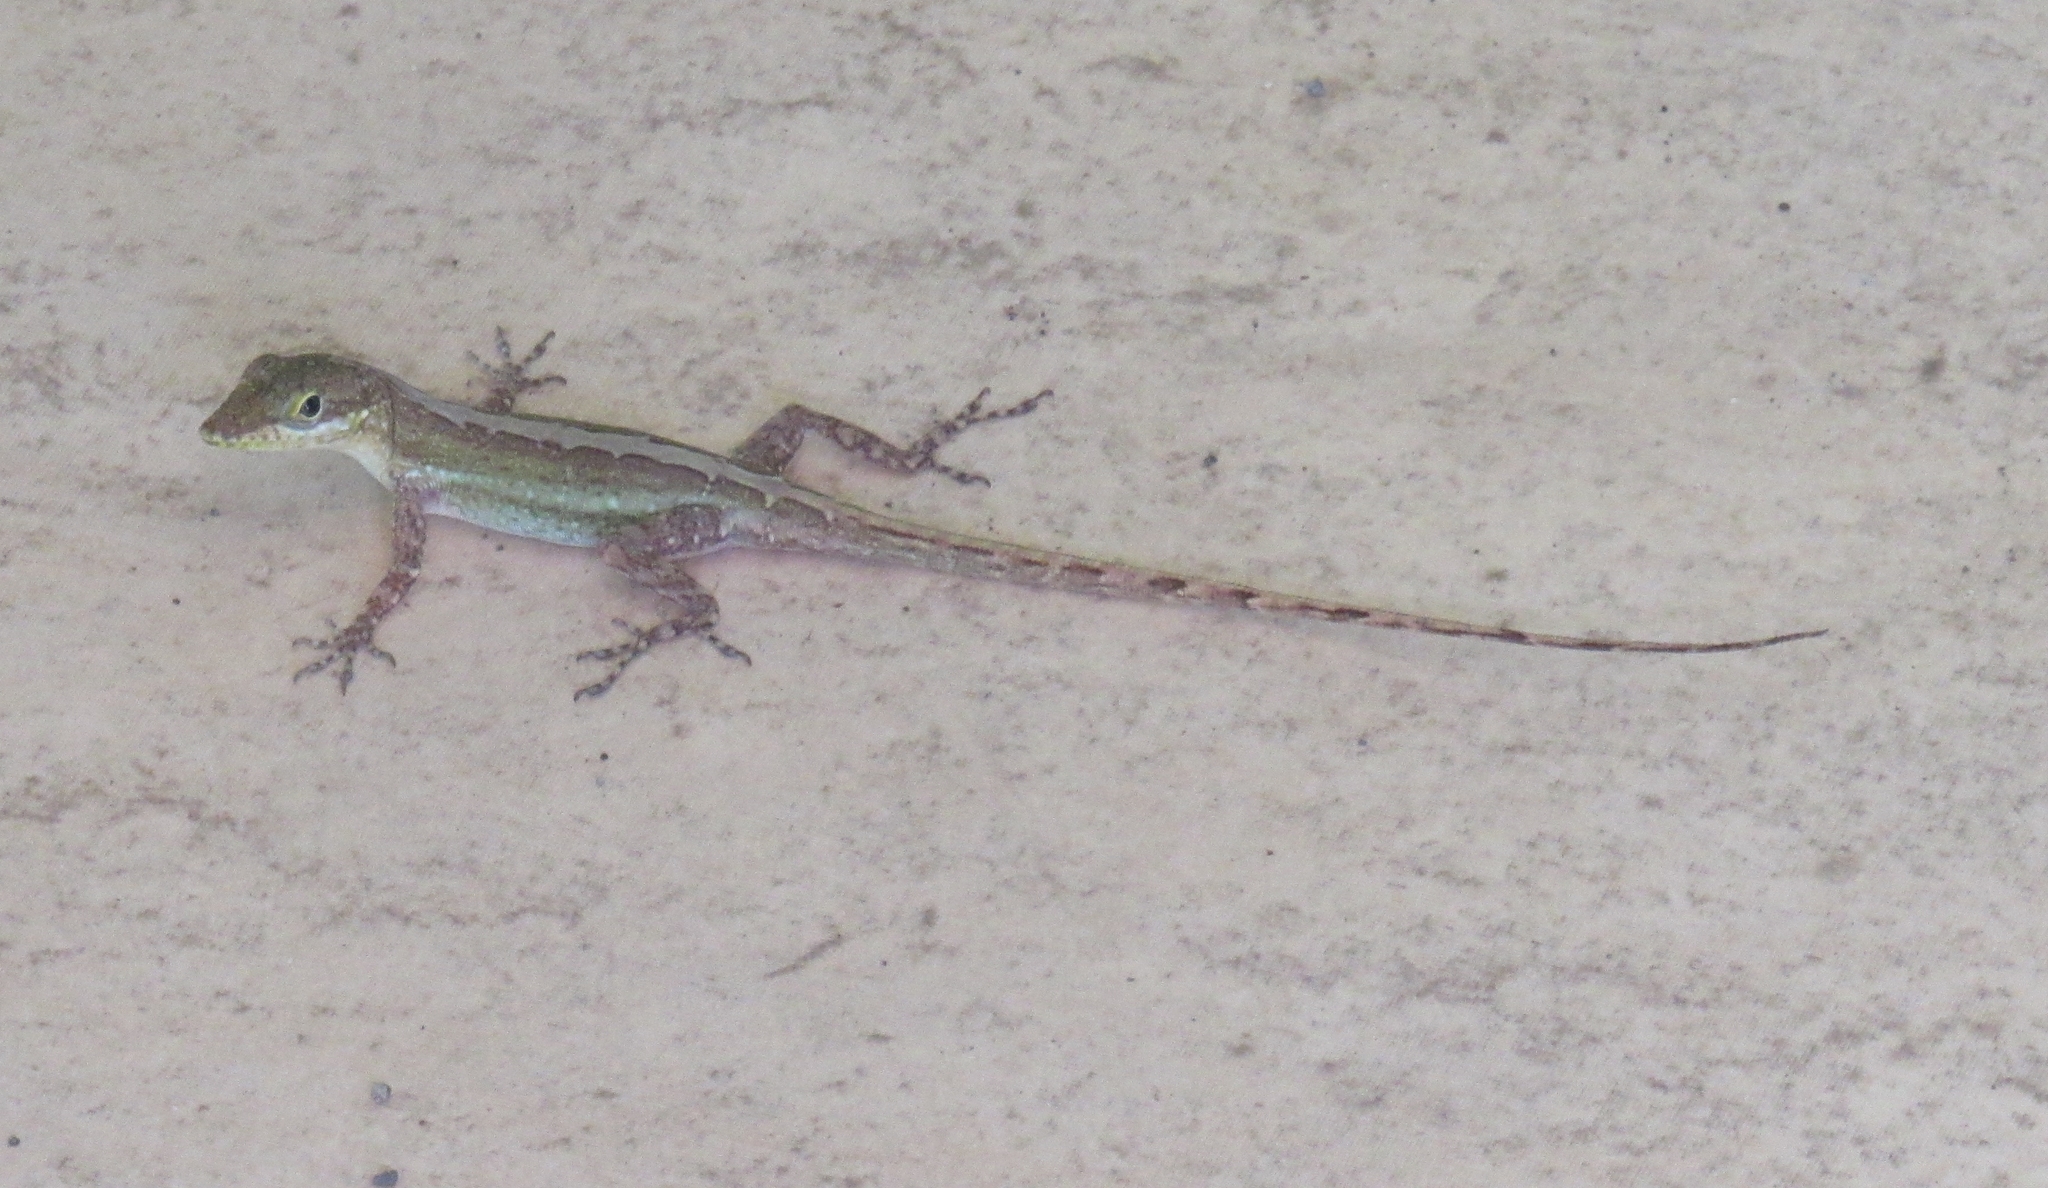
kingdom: Animalia
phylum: Chordata
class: Squamata
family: Dactyloidae
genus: Anolis
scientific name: Anolis lividus
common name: Montserrat anole
